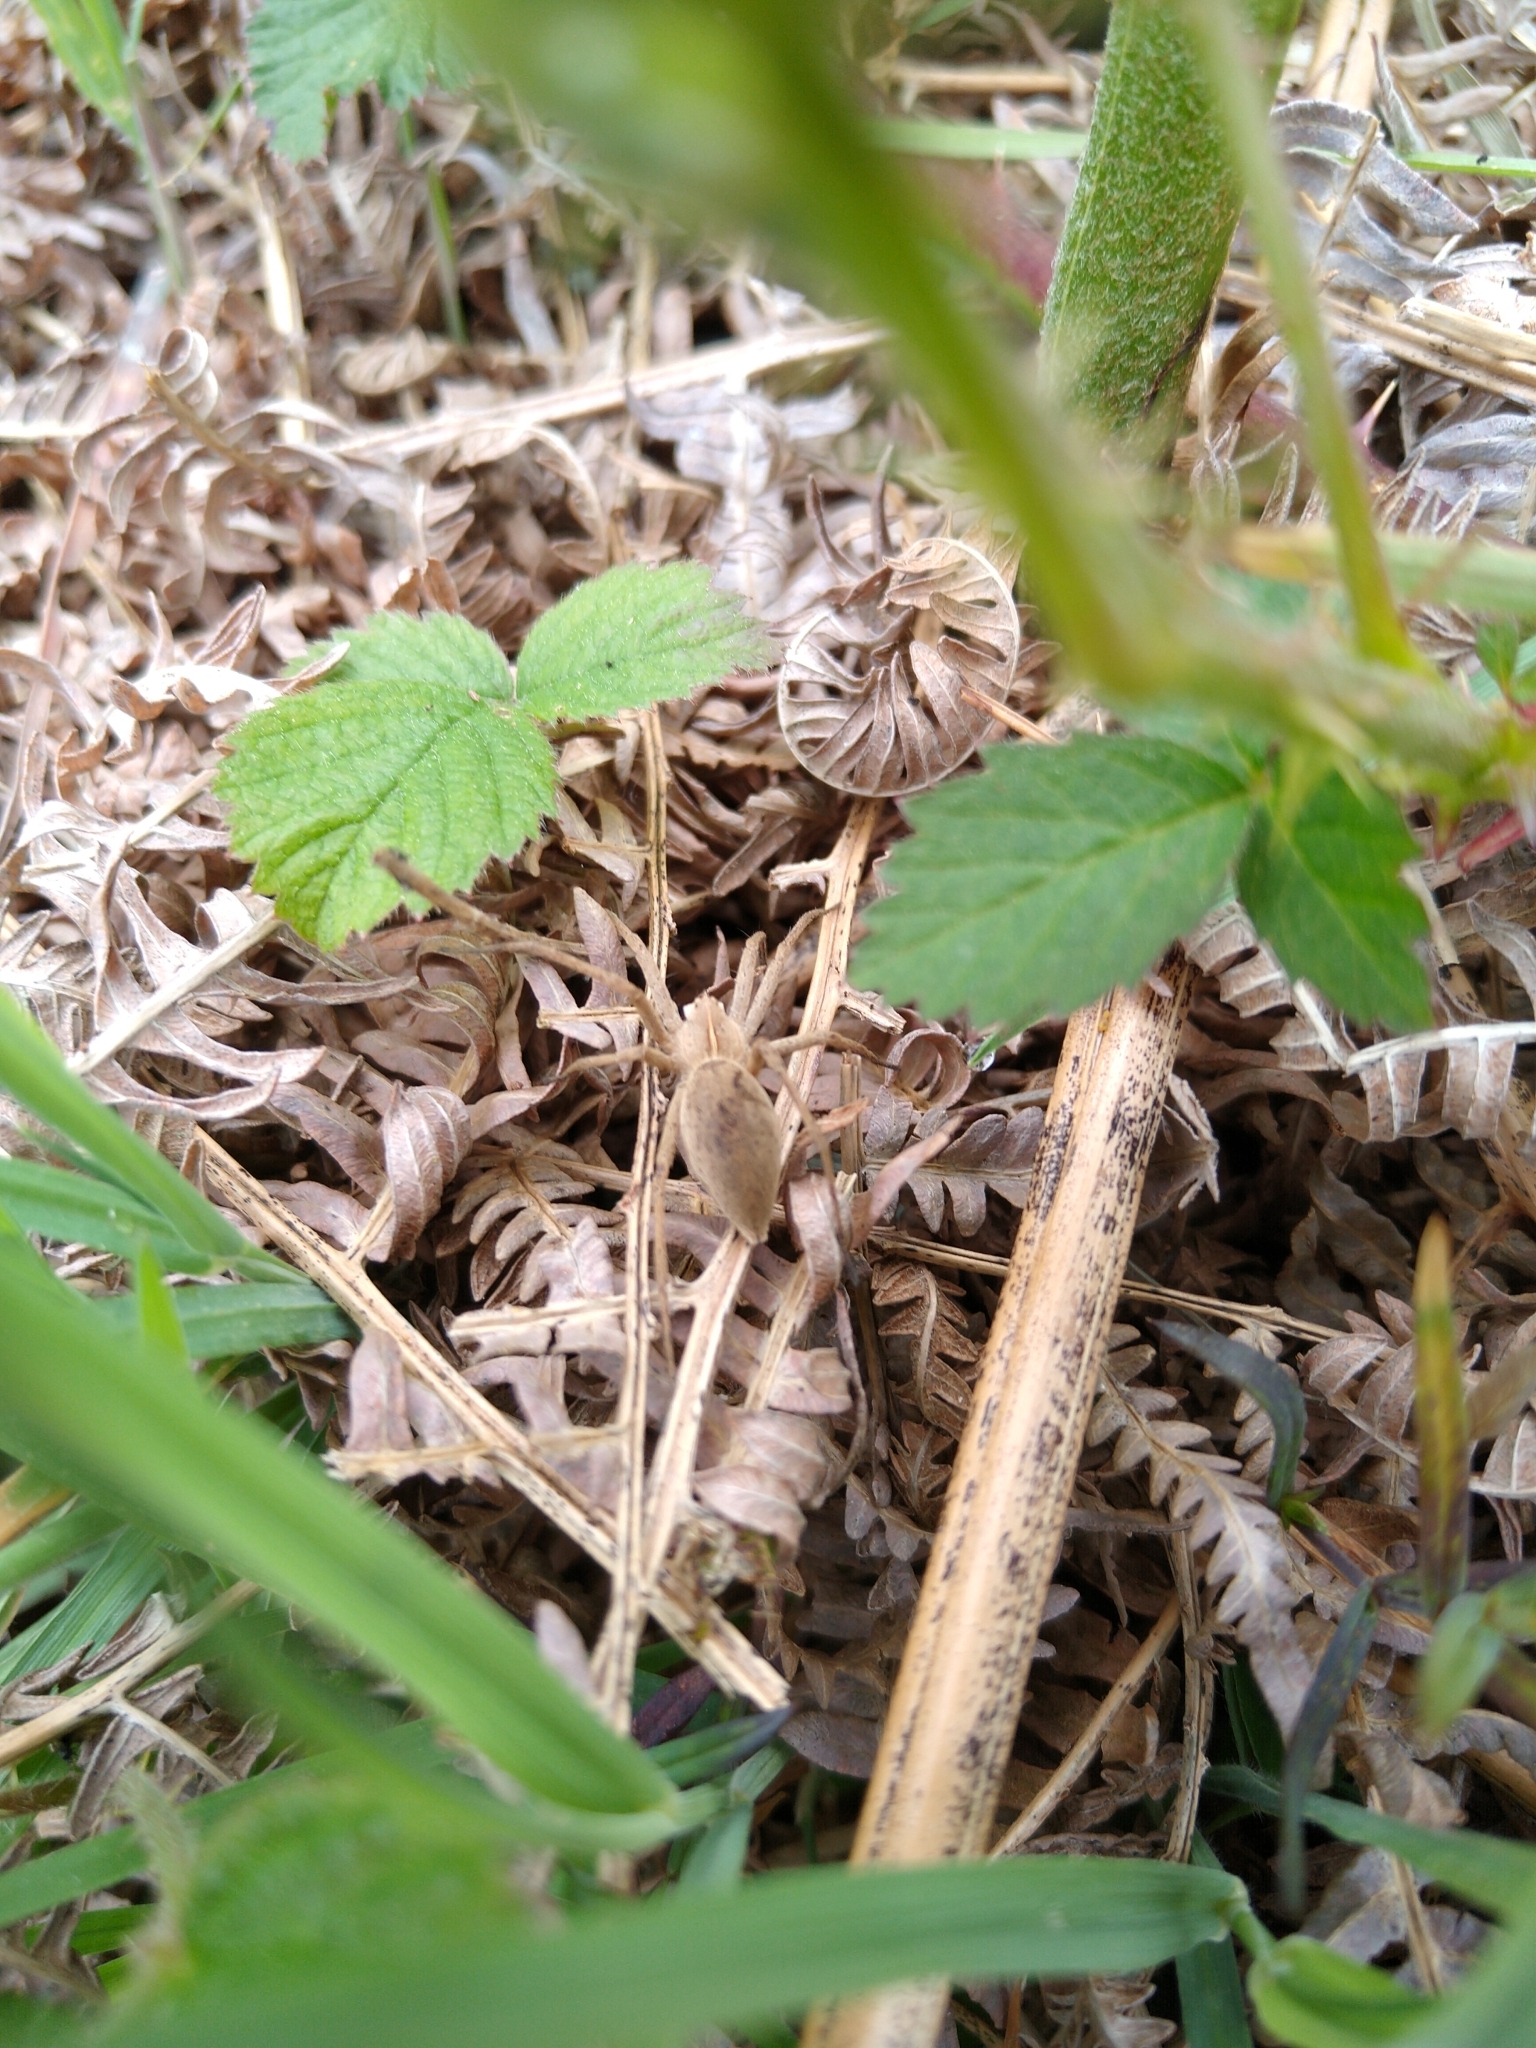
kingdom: Animalia
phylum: Arthropoda
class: Arachnida
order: Araneae
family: Pisauridae
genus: Pisaura
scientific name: Pisaura mirabilis
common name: Tent spider
